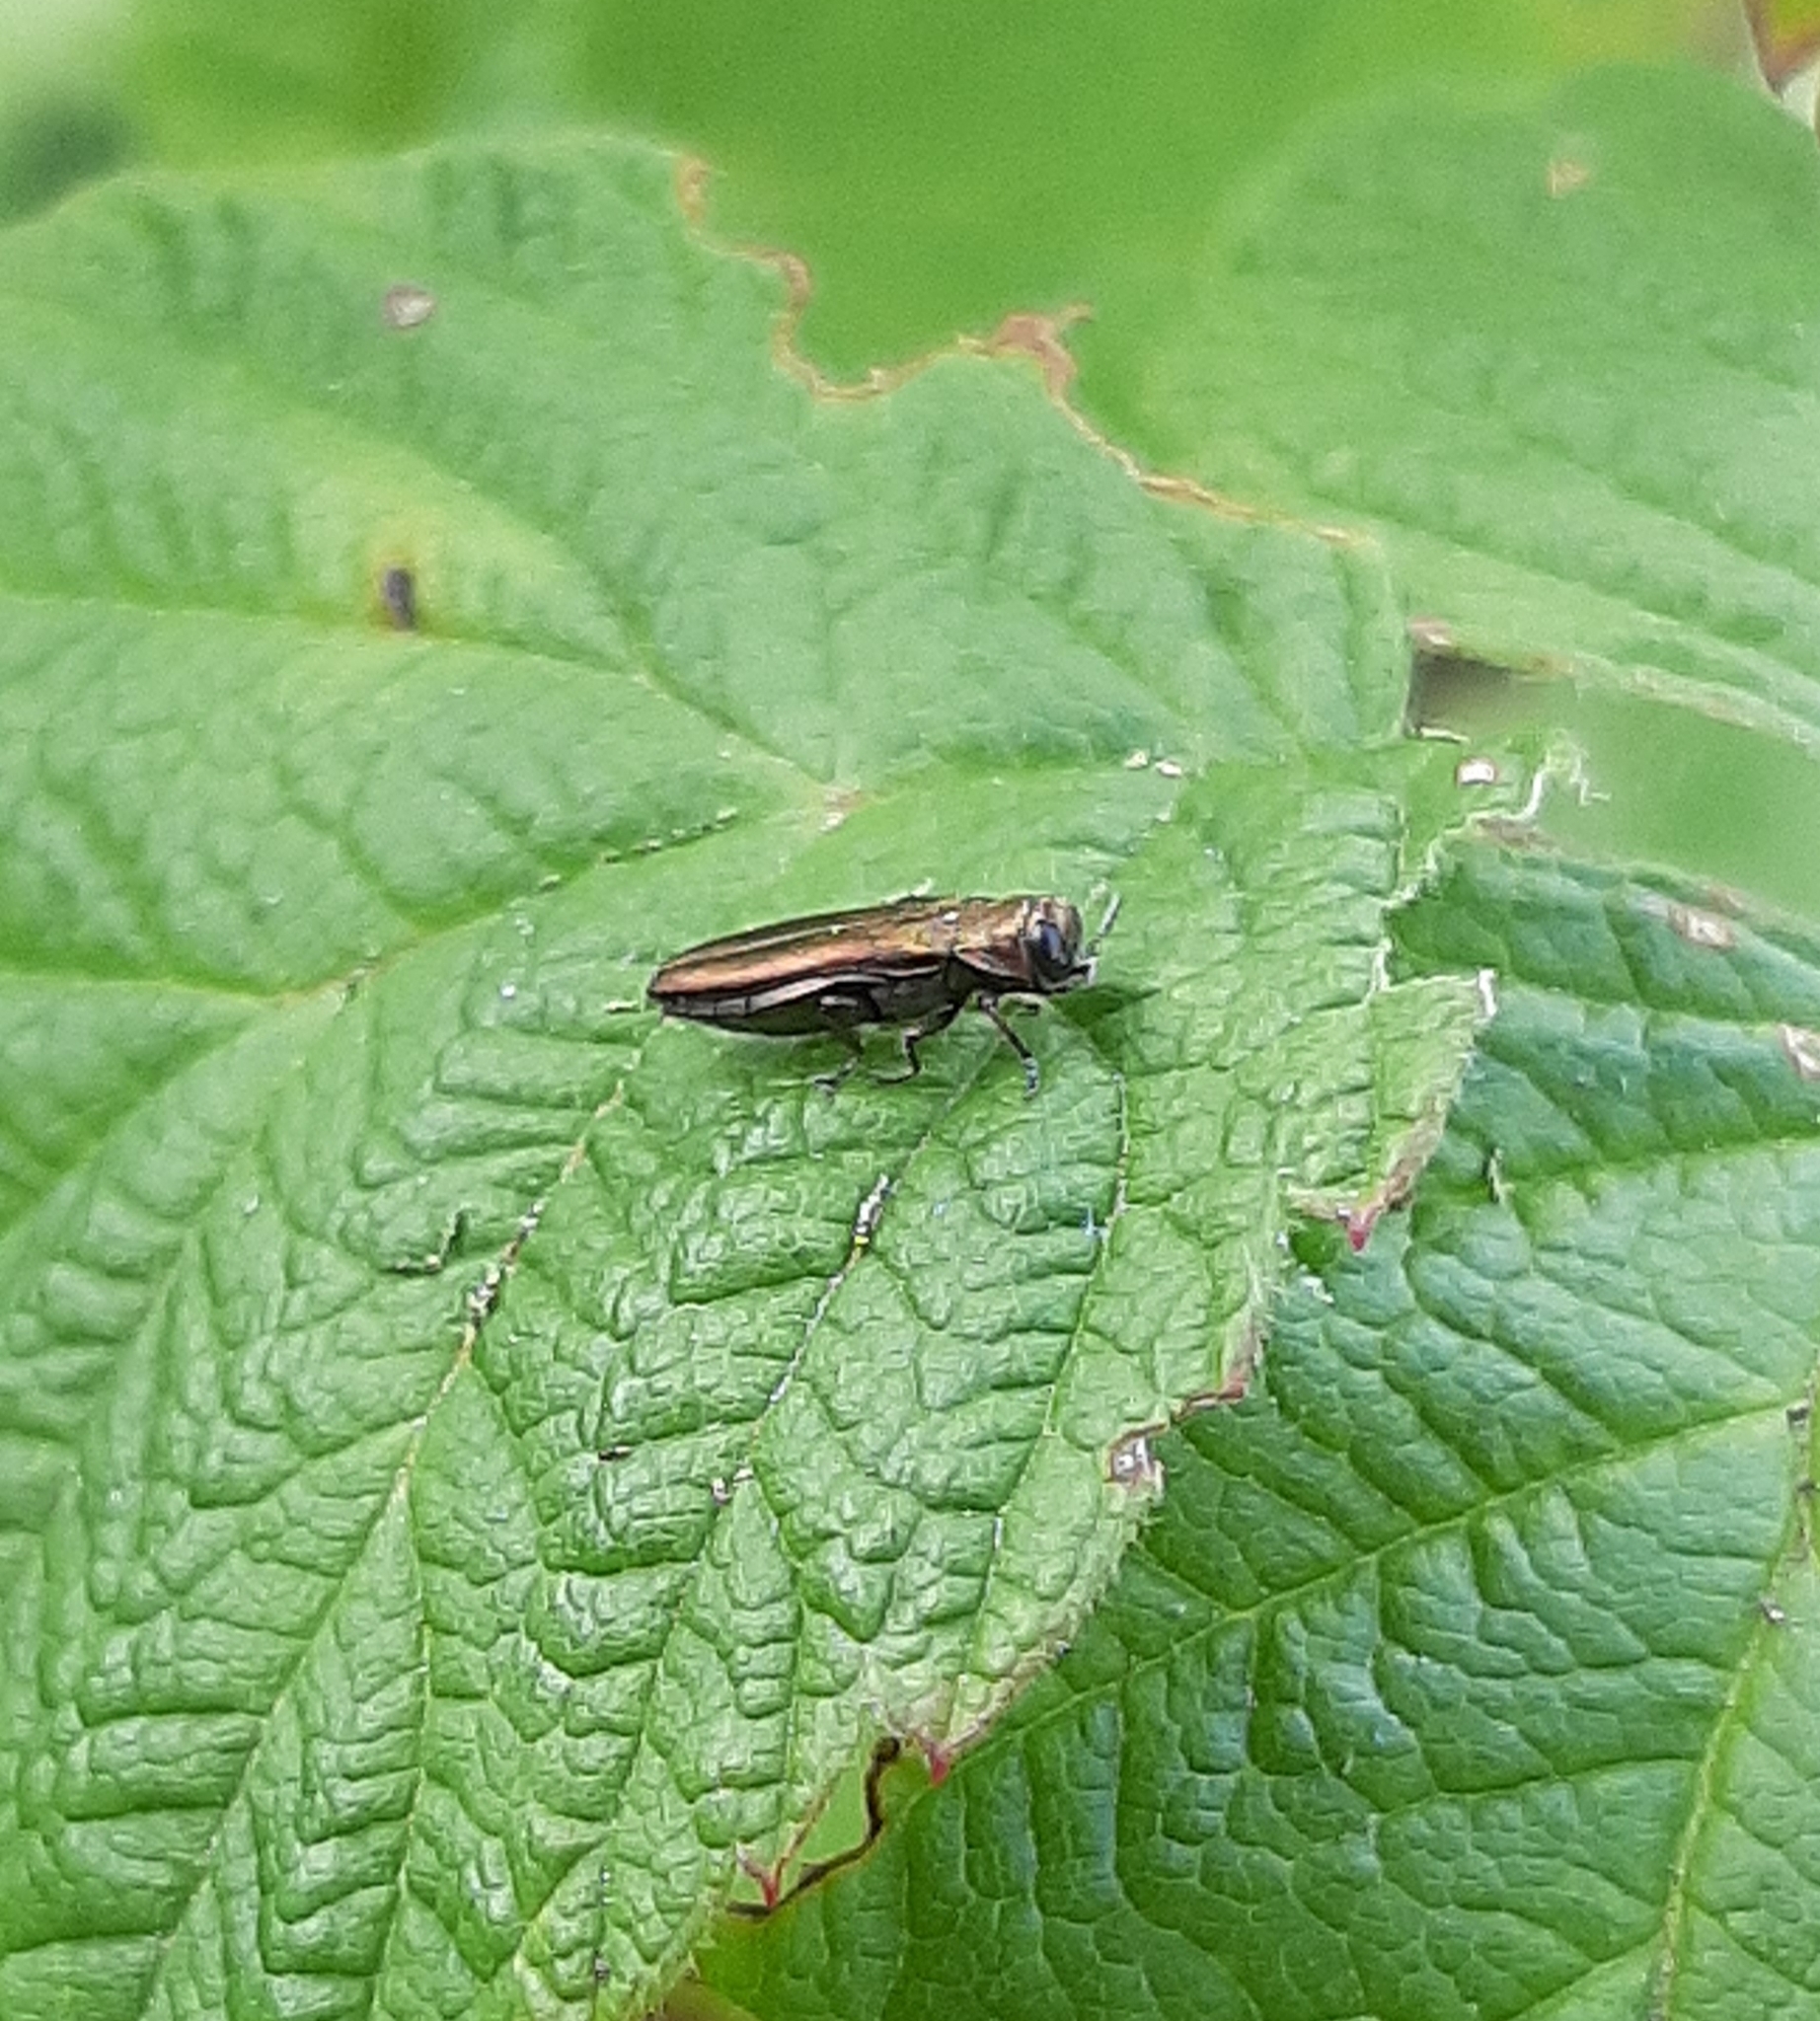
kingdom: Animalia
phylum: Arthropoda
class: Insecta
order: Coleoptera
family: Buprestidae
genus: Agrilus
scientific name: Agrilus cuprescens
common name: Rose stem girdler
